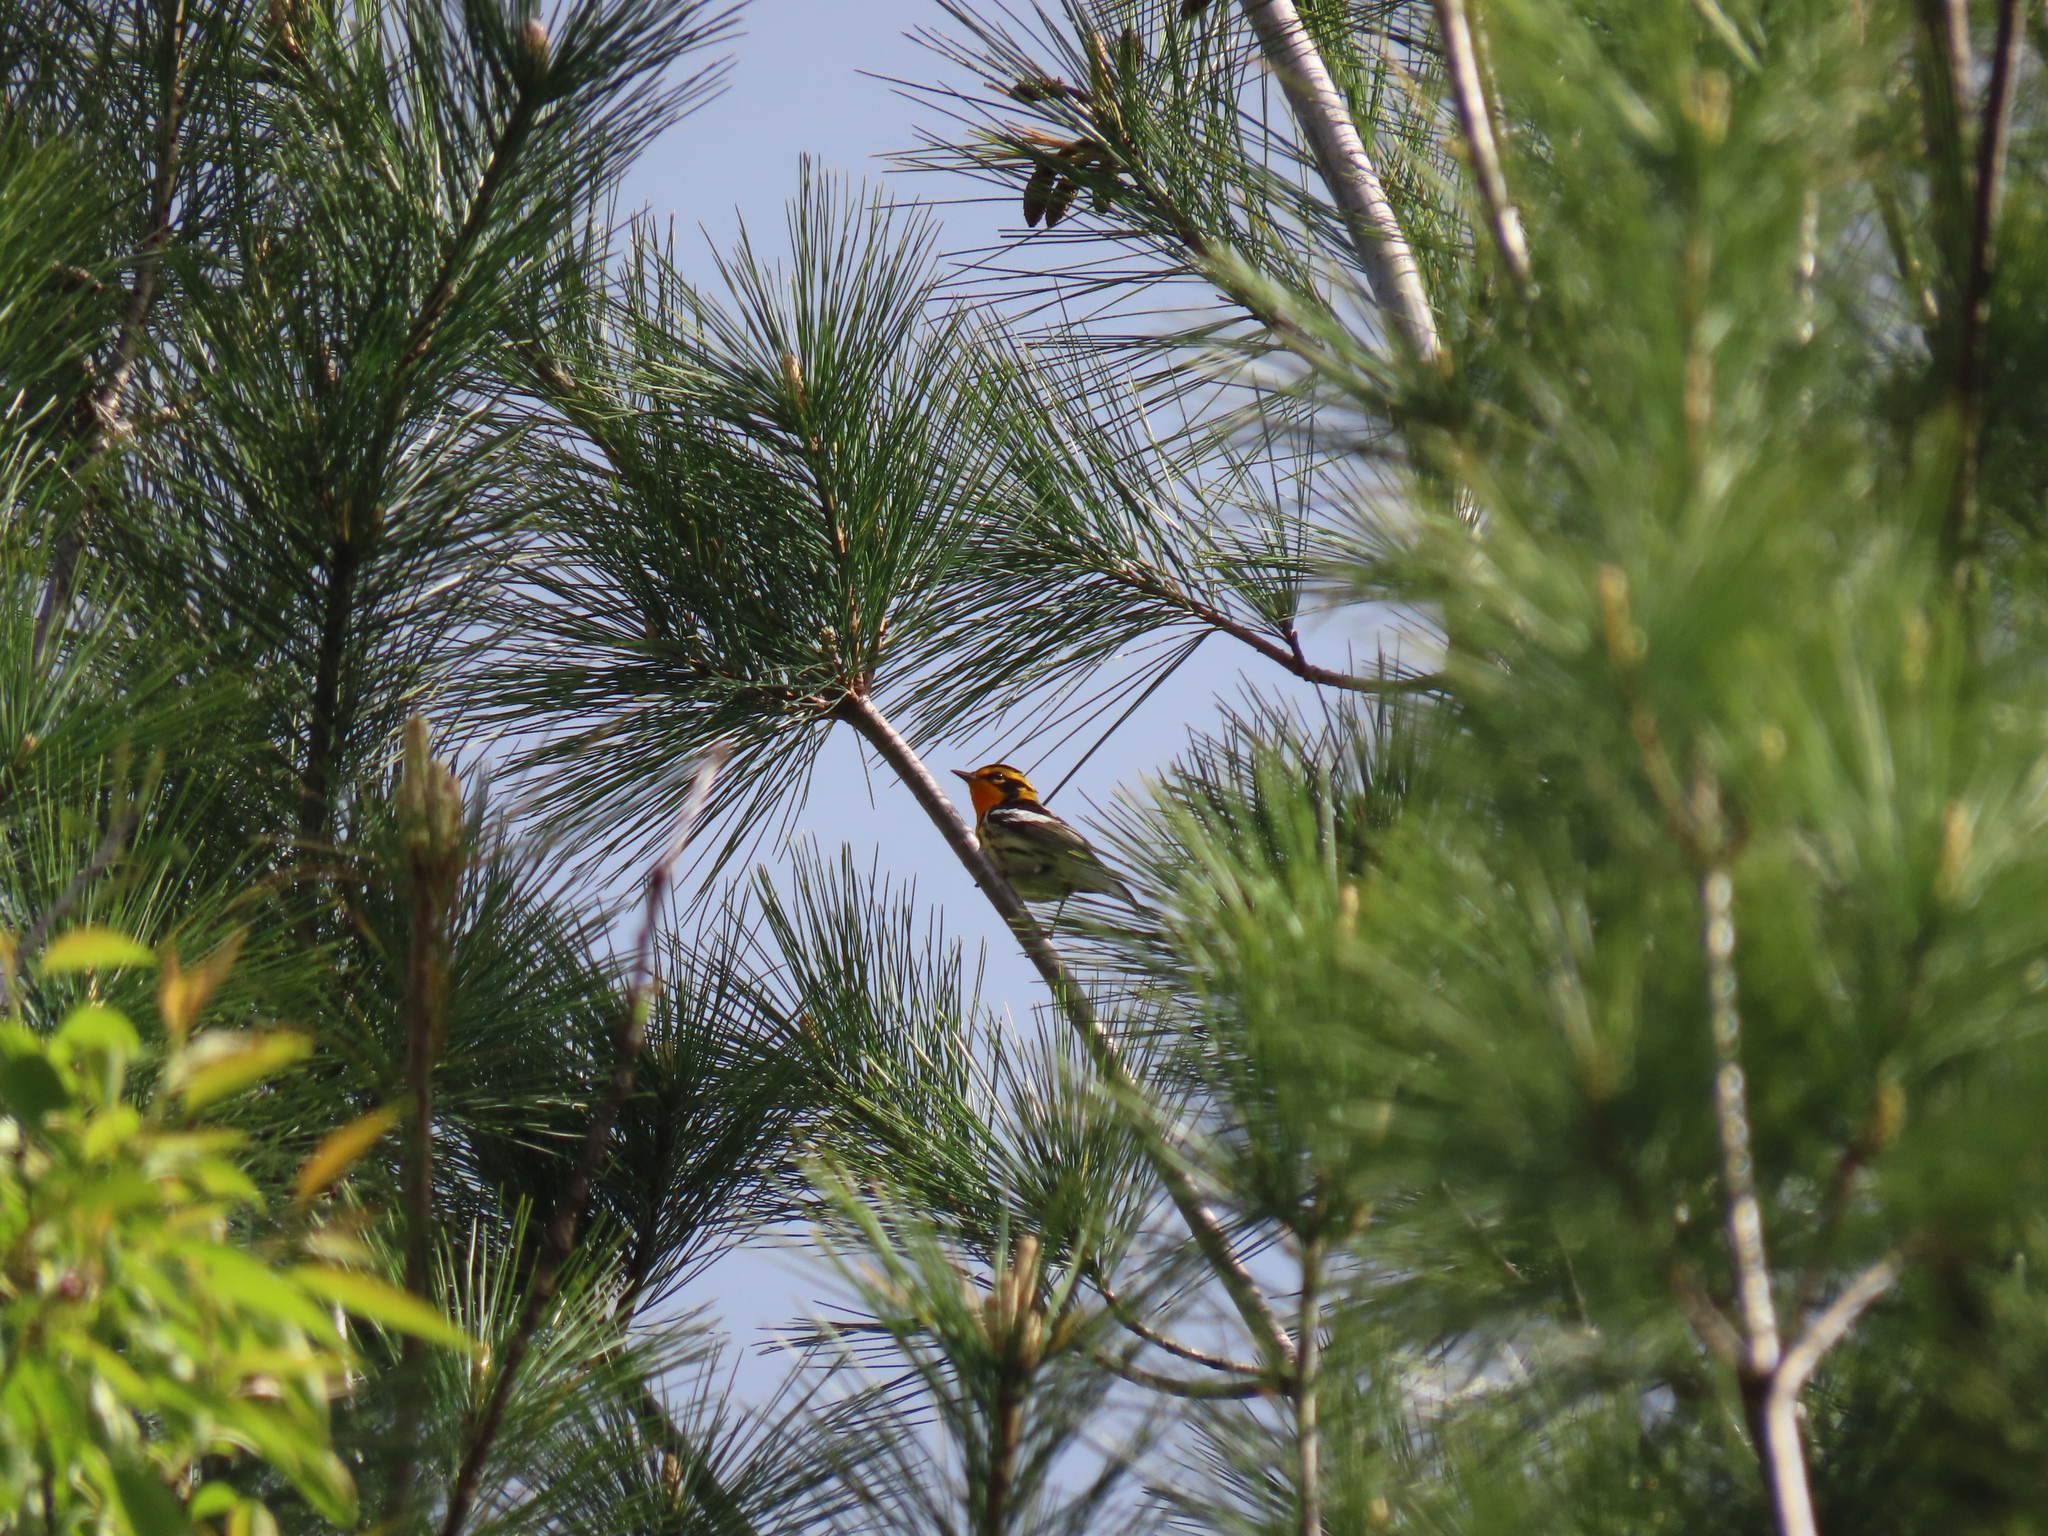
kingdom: Animalia
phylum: Chordata
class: Aves
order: Passeriformes
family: Parulidae
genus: Setophaga
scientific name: Setophaga fusca
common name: Blackburnian warbler
